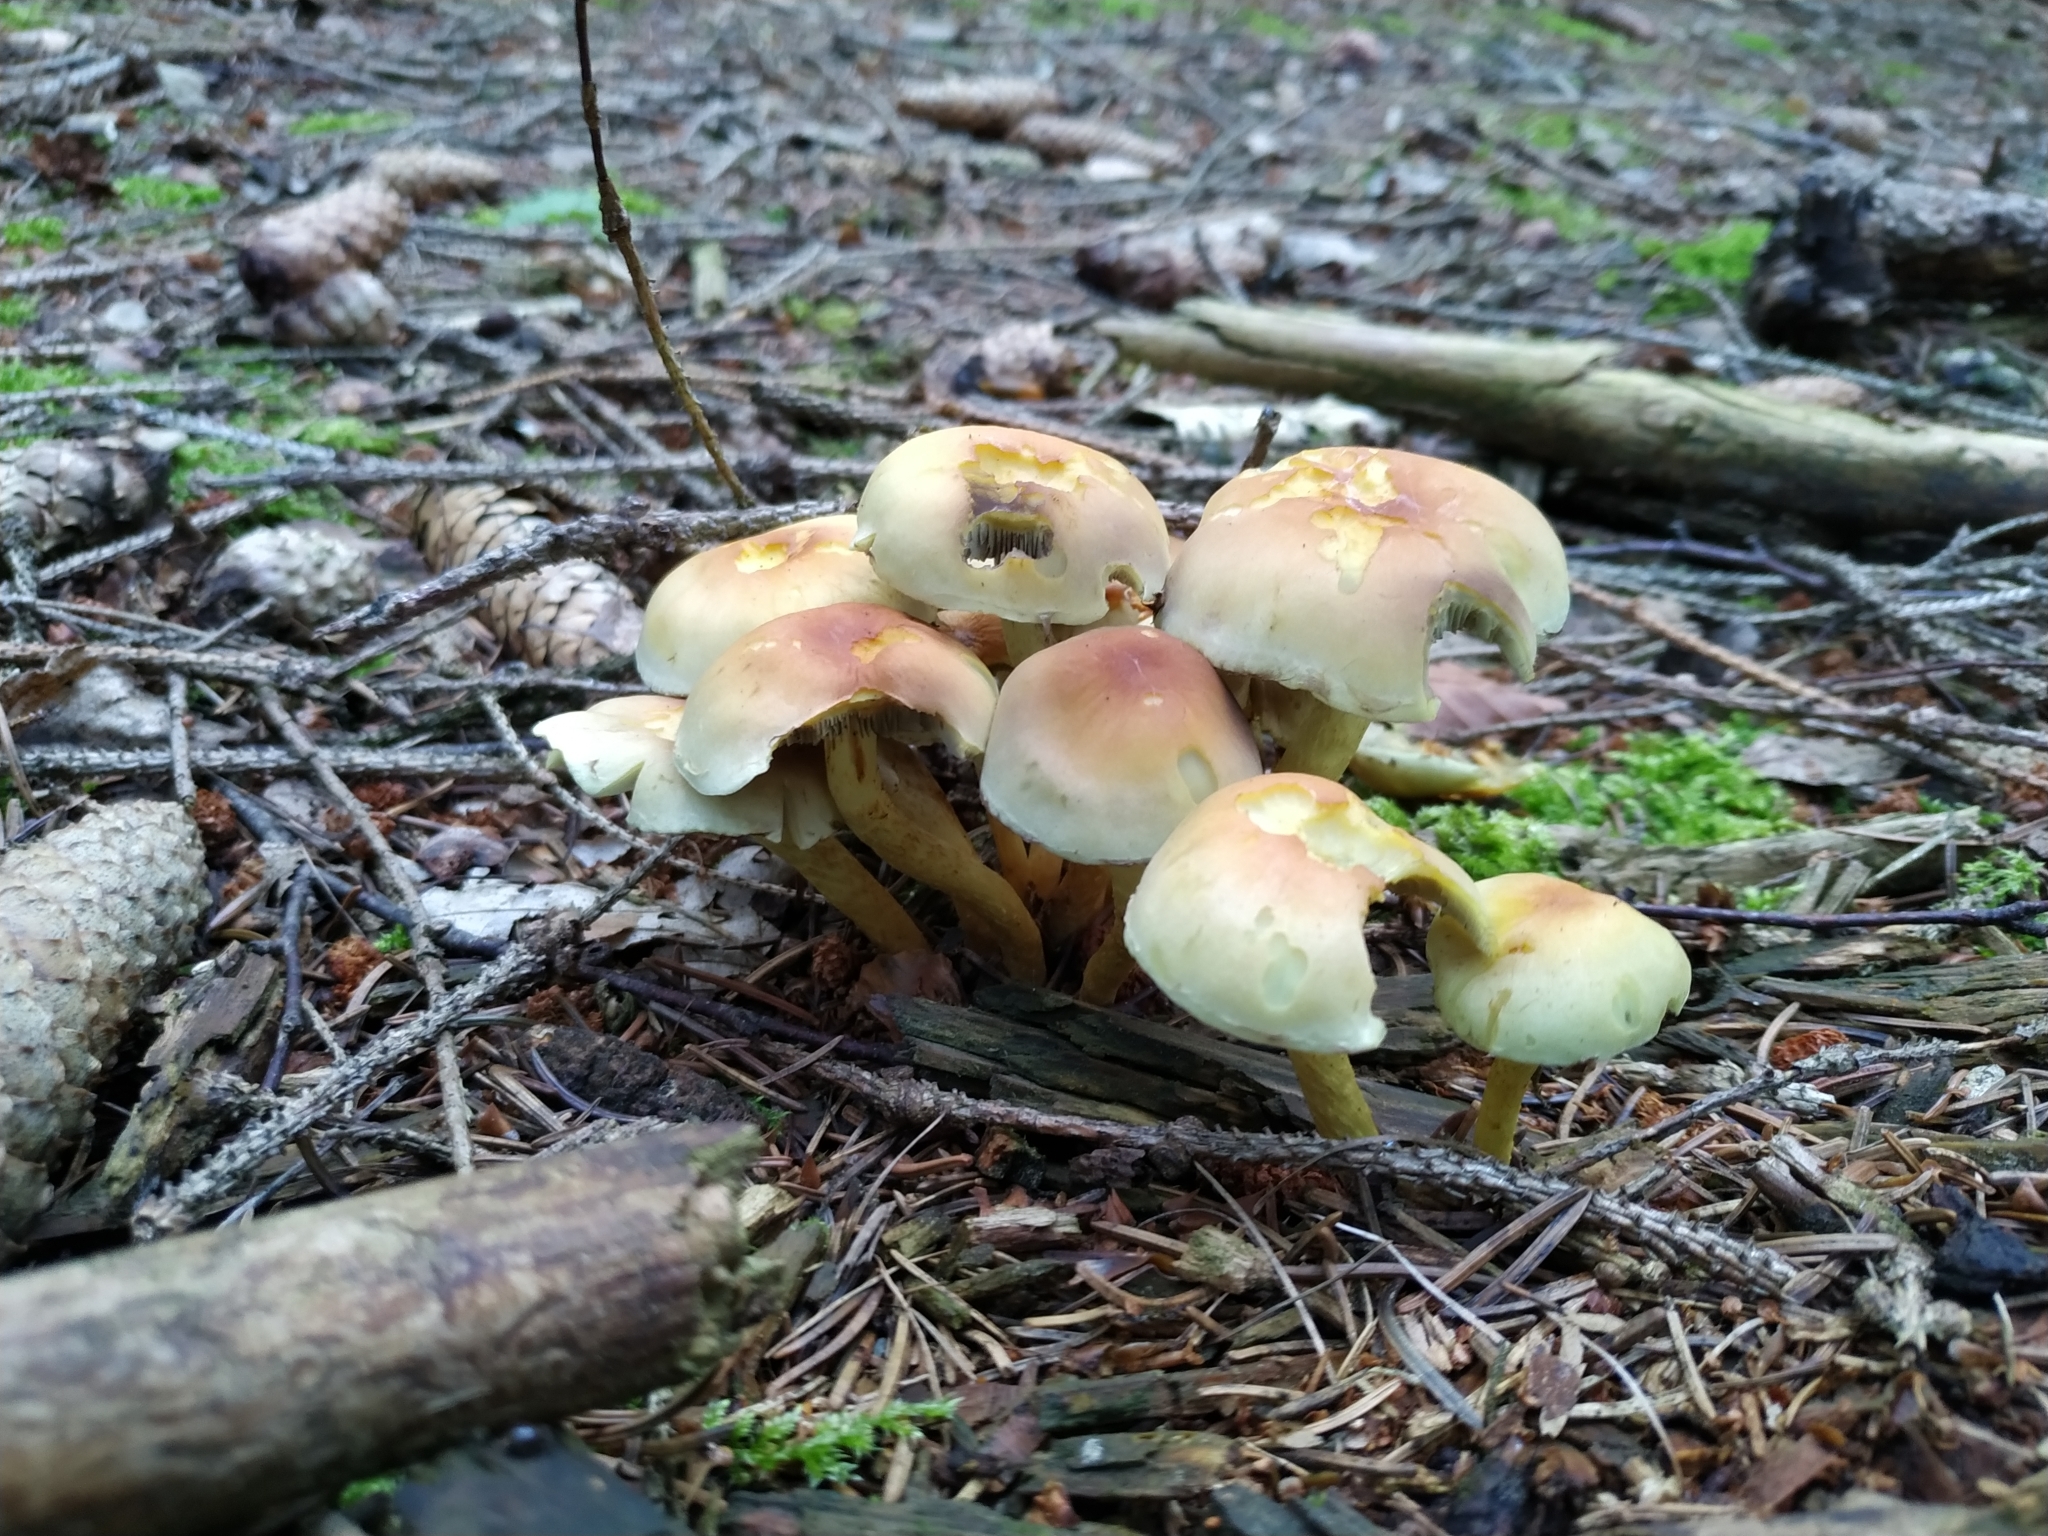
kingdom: Fungi
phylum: Basidiomycota
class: Agaricomycetes
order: Agaricales
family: Strophariaceae
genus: Hypholoma
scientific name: Hypholoma fasciculare
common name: Sulphur tuft
